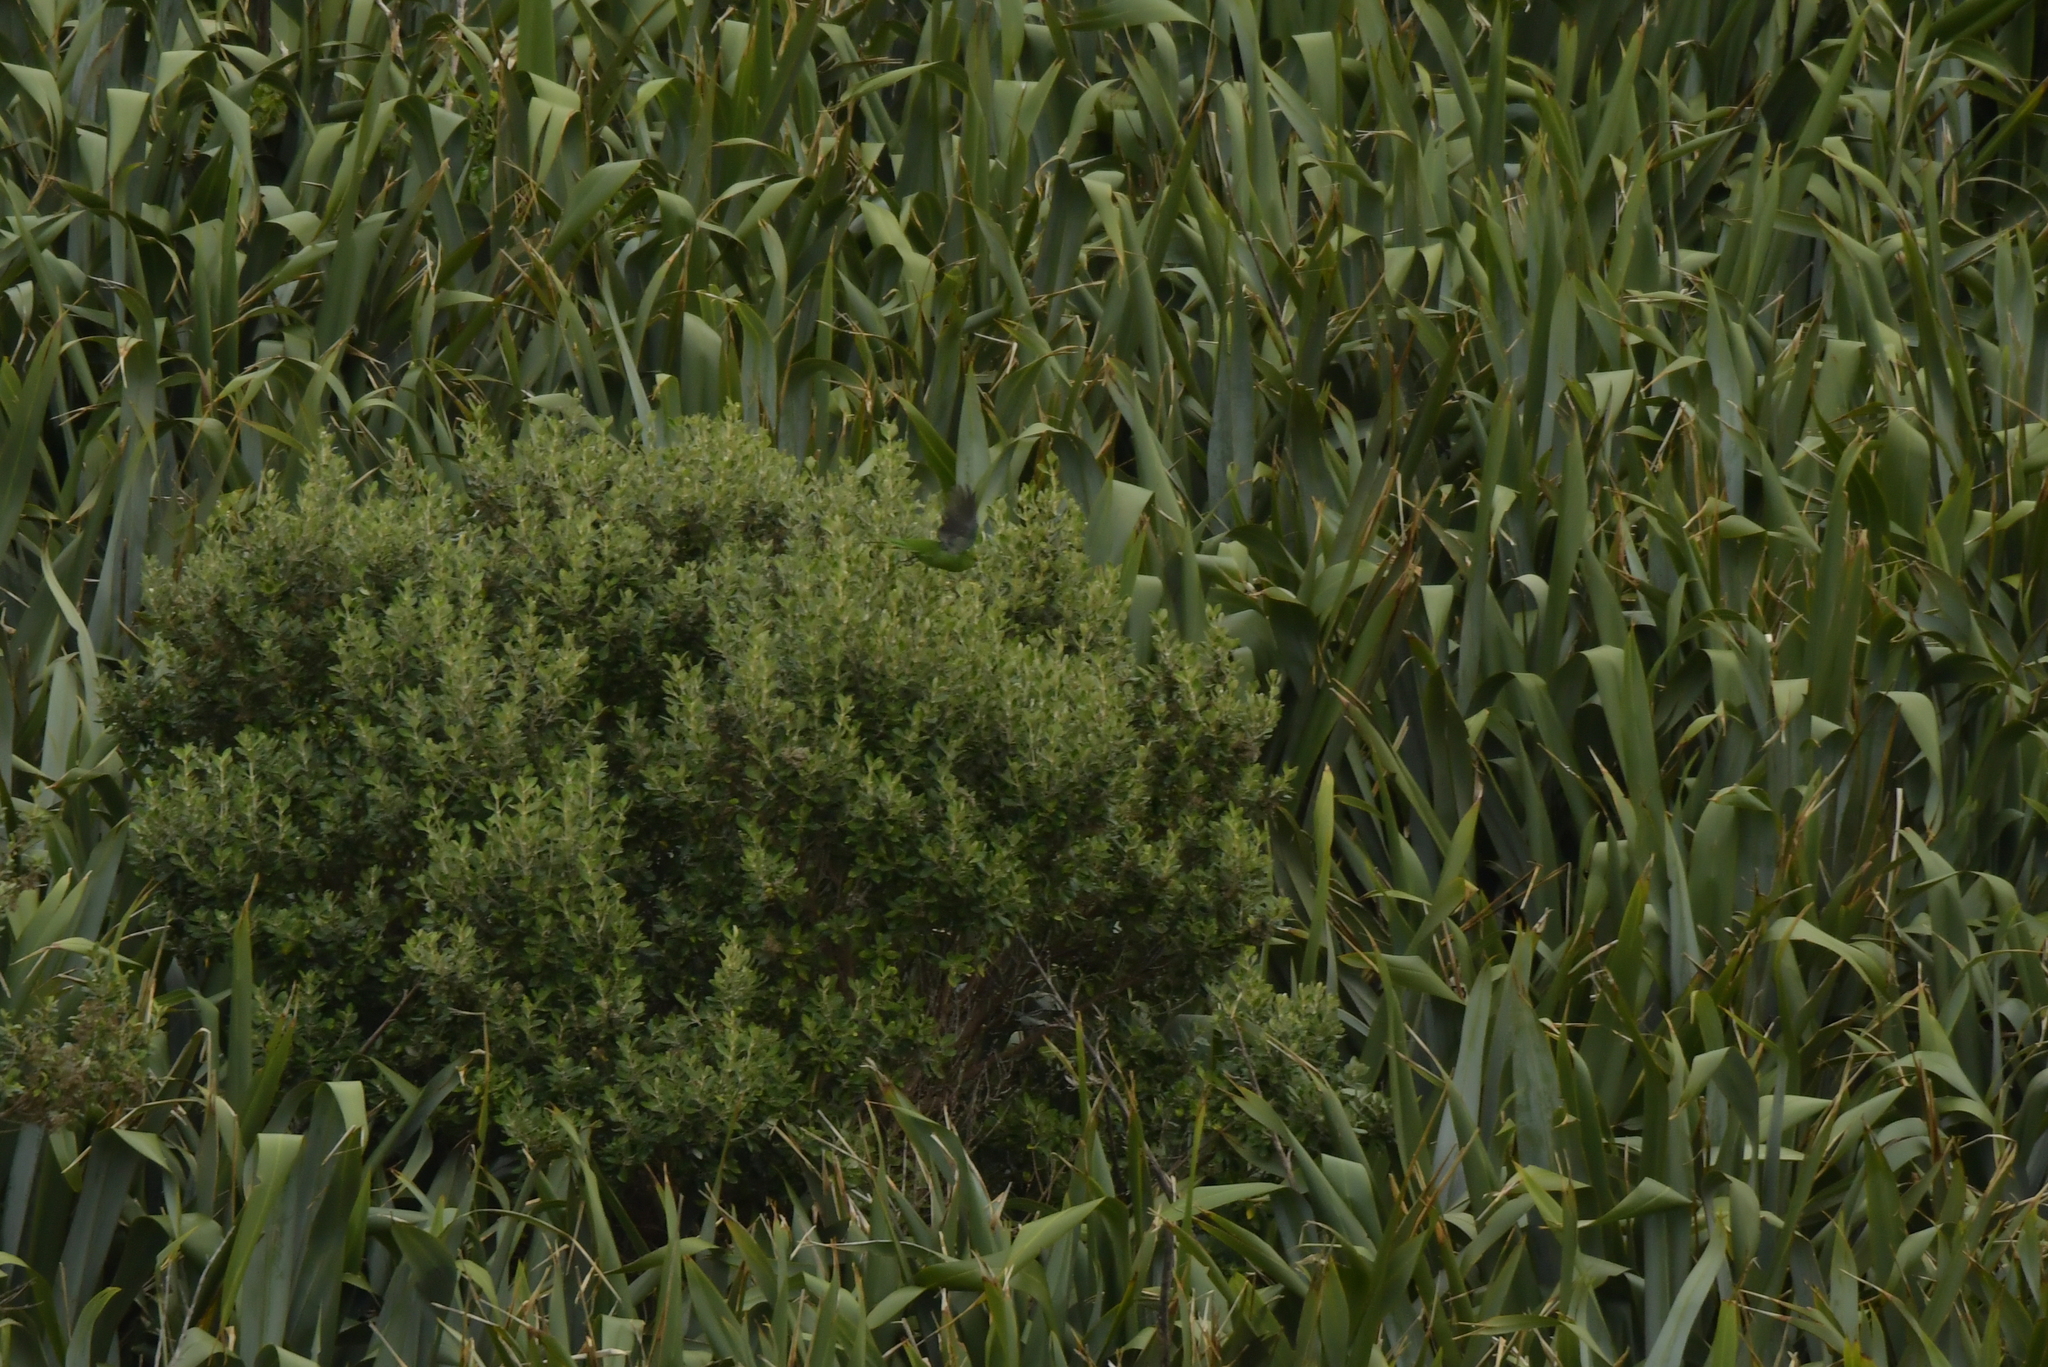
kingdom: Animalia
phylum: Chordata
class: Aves
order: Psittaciformes
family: Psittacidae
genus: Cyanoramphus
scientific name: Cyanoramphus forbesi
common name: Chatham parakeet
